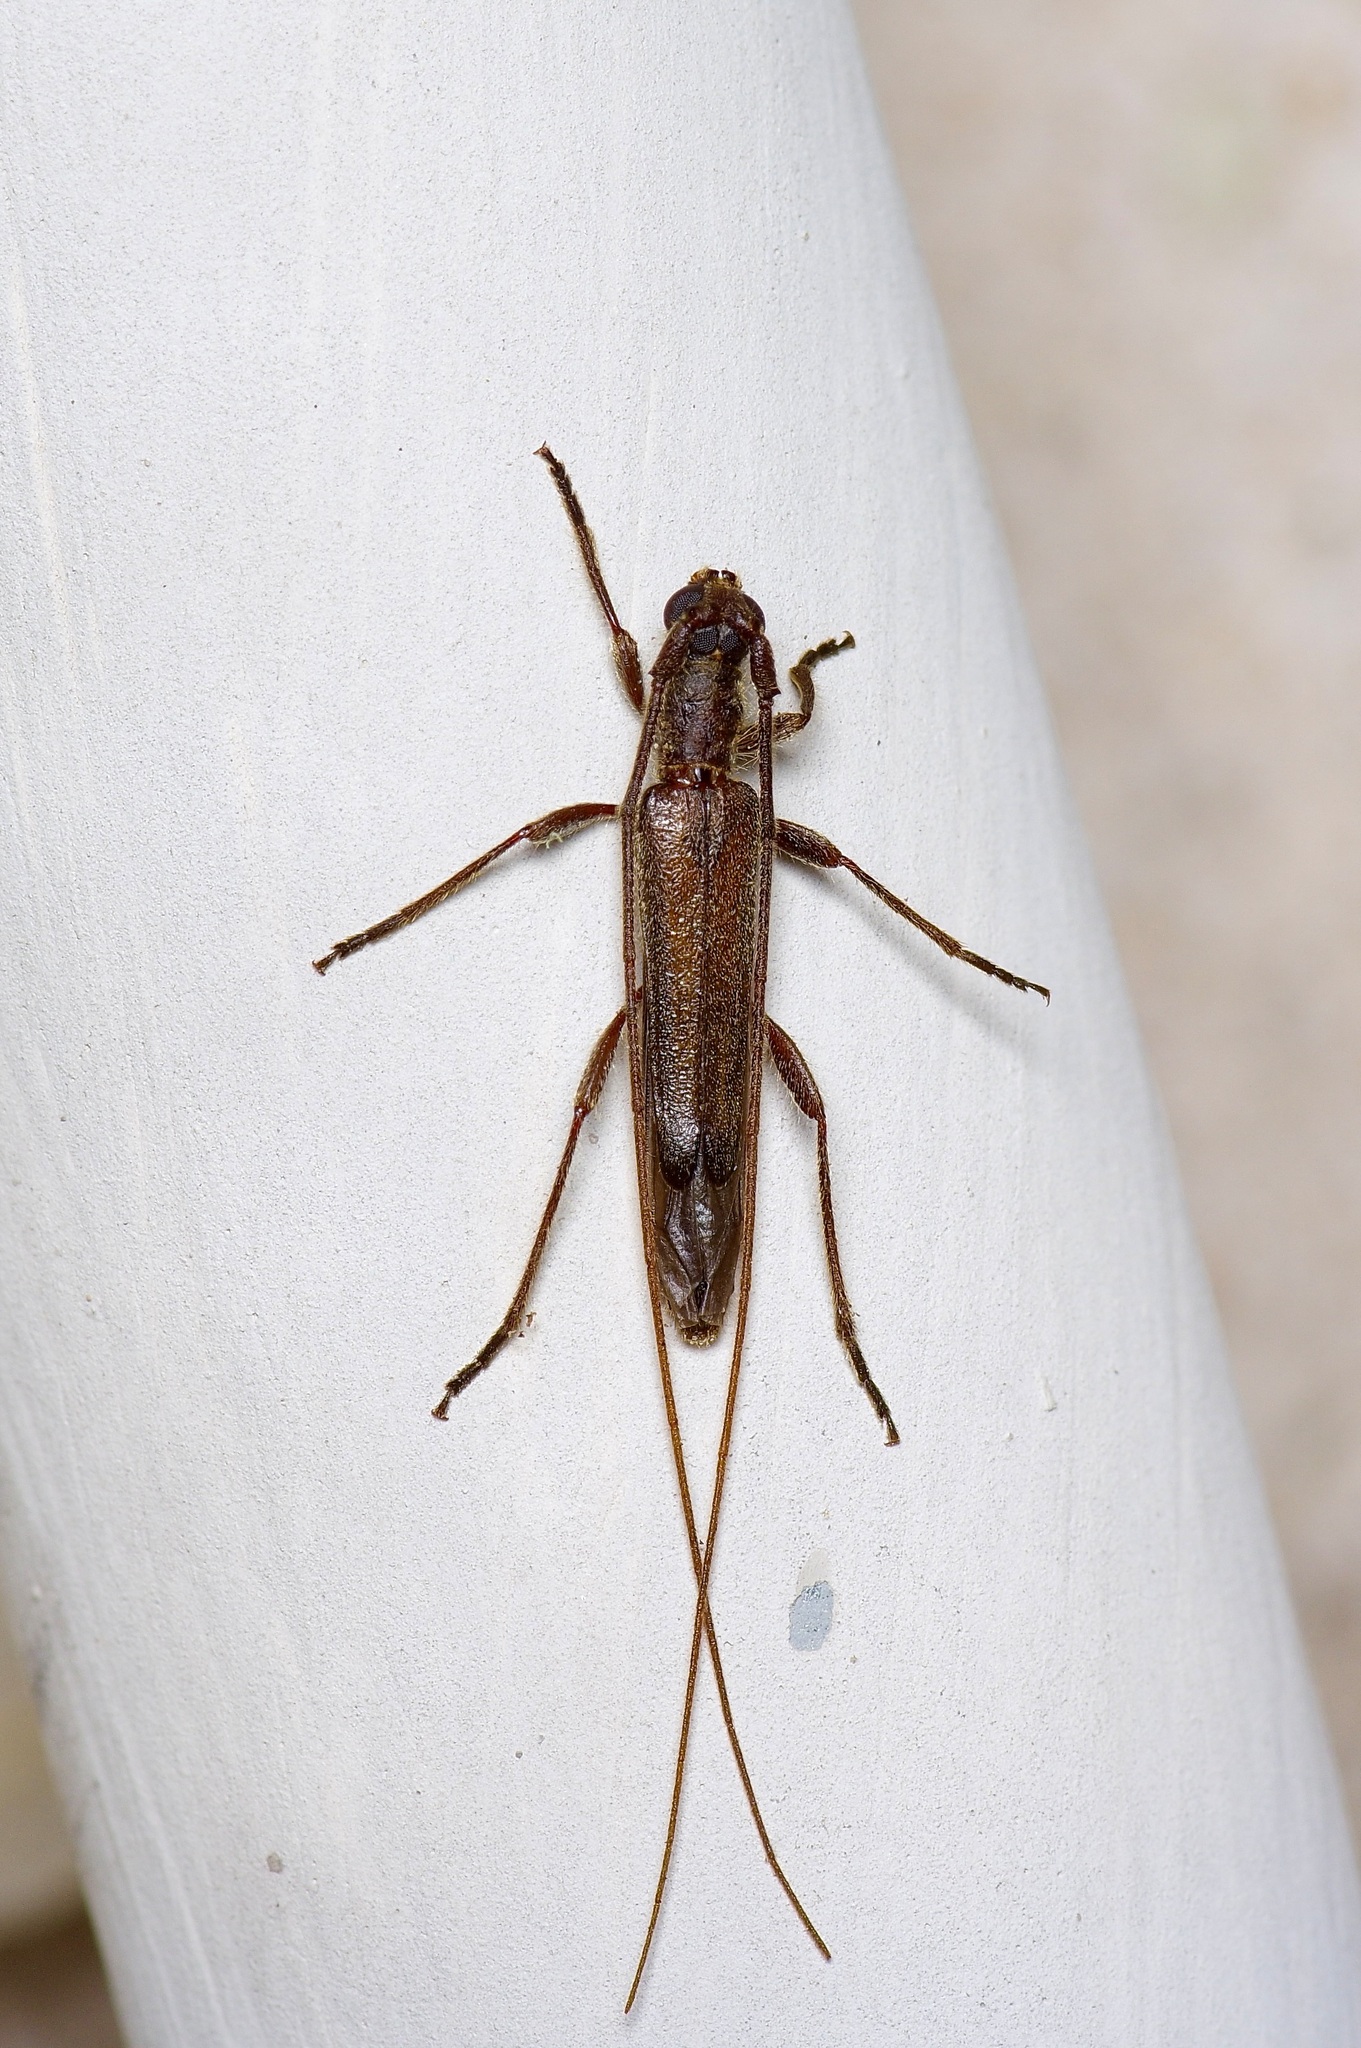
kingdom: Animalia
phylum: Arthropoda
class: Insecta
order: Coleoptera
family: Cerambycidae
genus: Styloxus
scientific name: Styloxus fulleri
